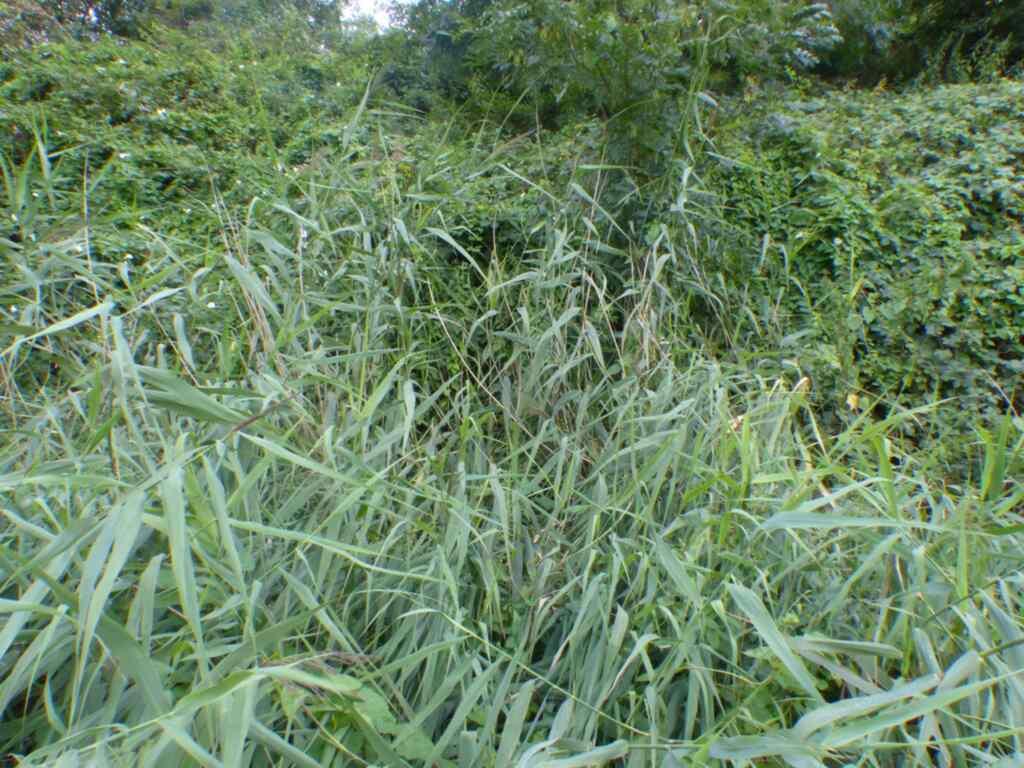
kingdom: Plantae
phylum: Tracheophyta
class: Liliopsida
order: Poales
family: Poaceae
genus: Phragmites
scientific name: Phragmites australis
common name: Common reed
